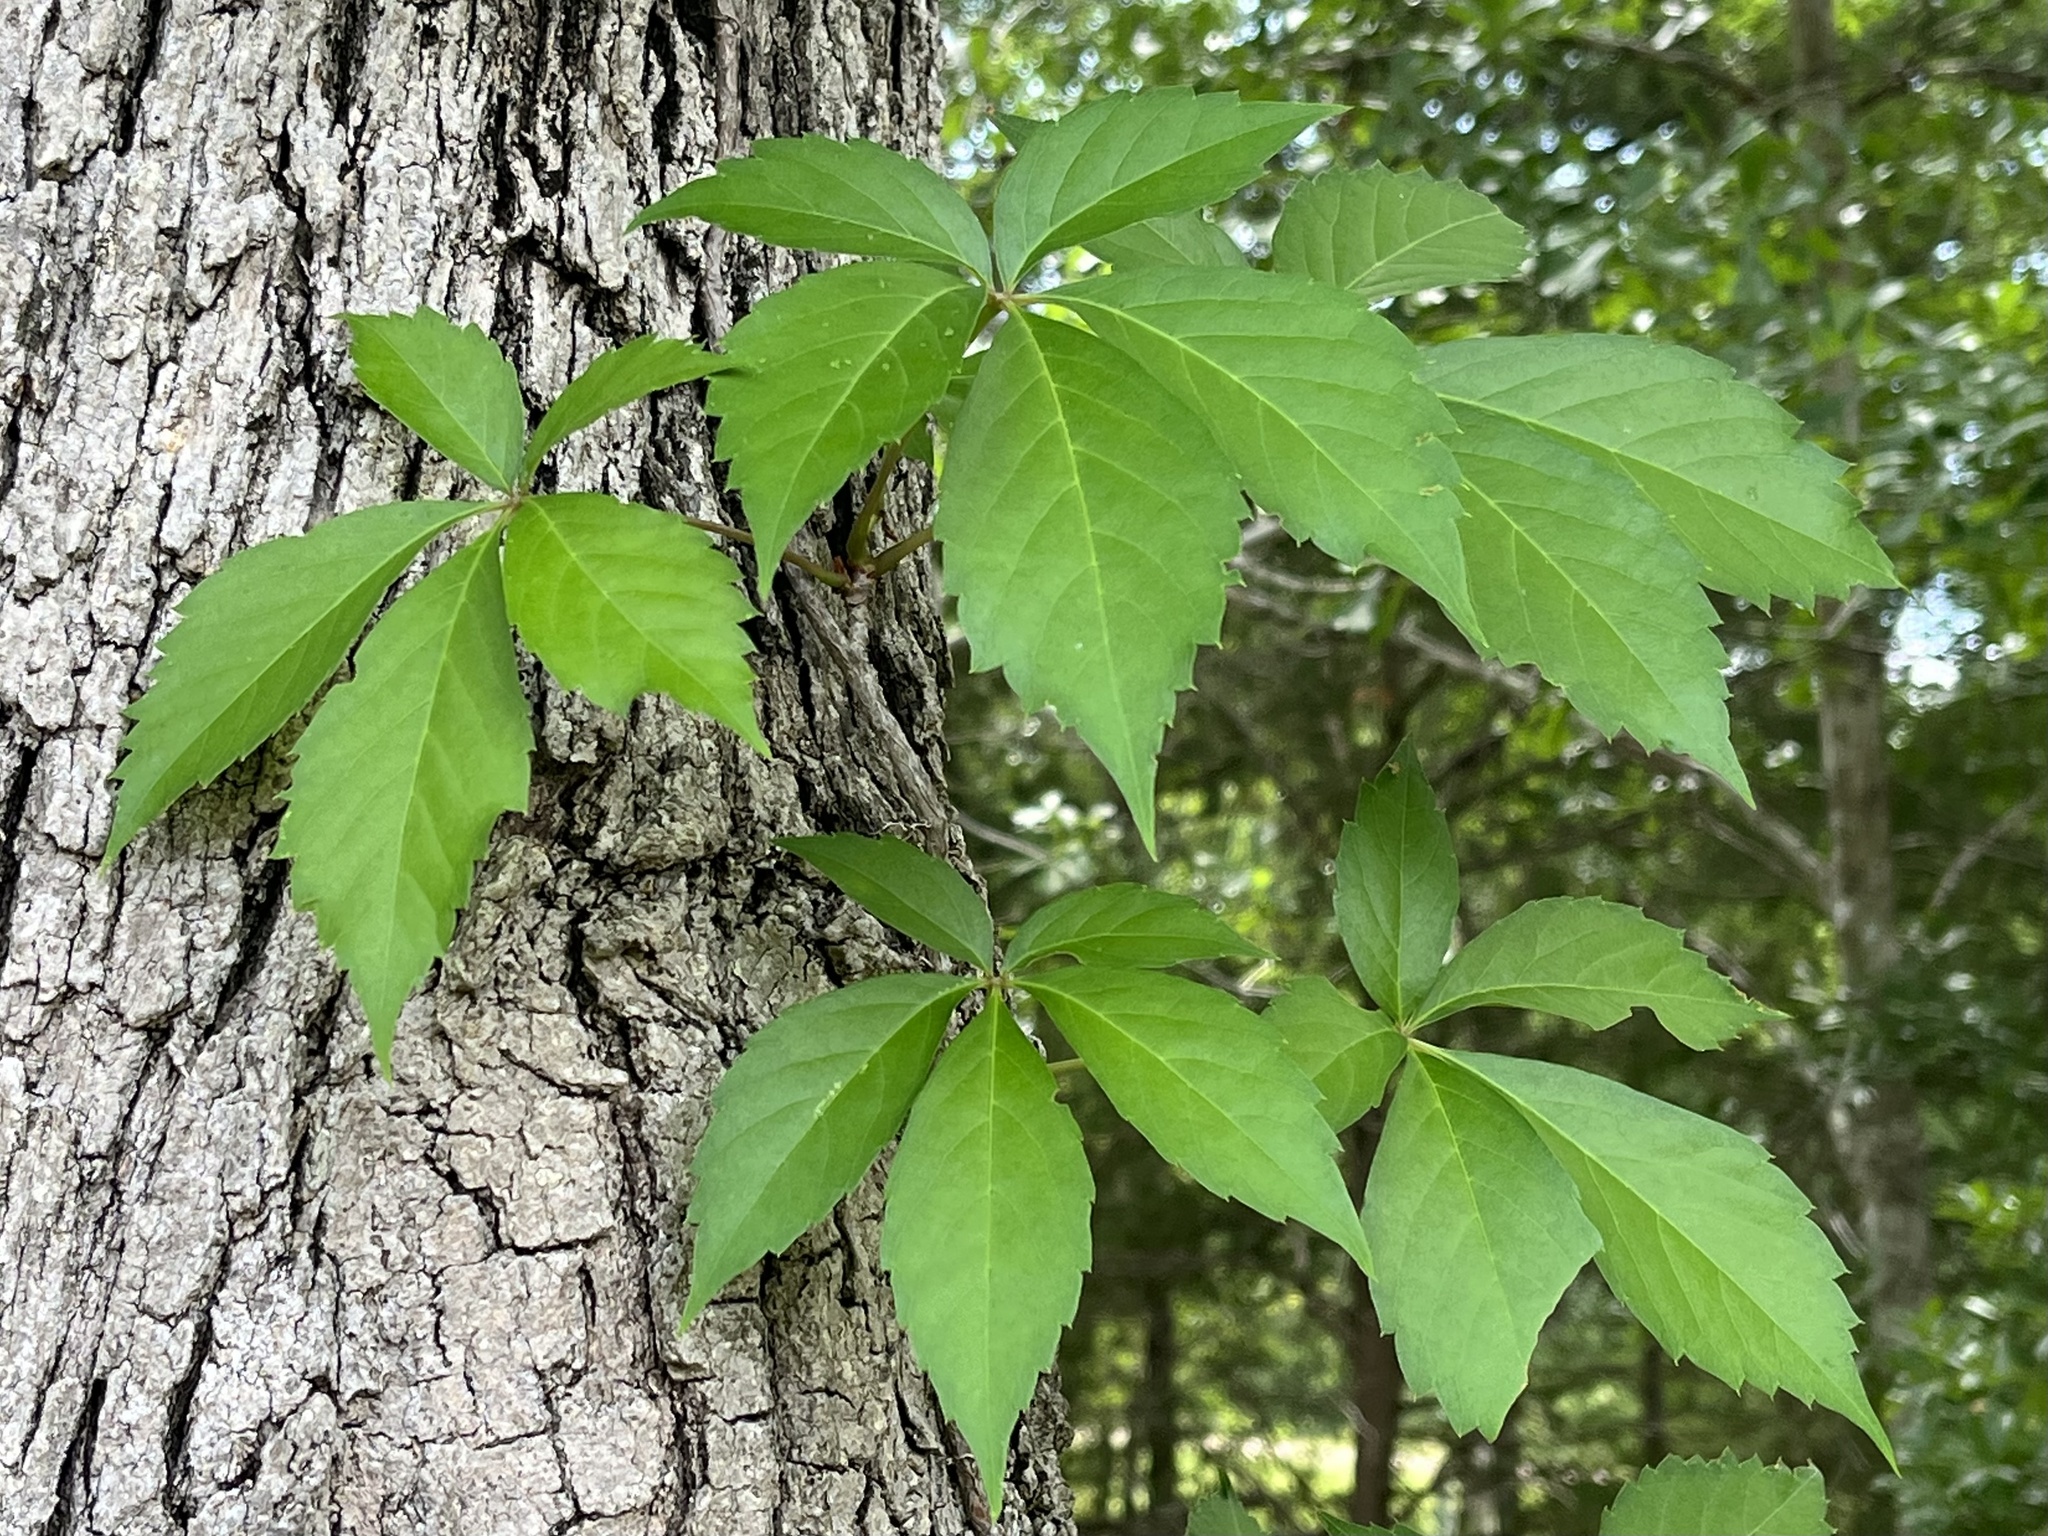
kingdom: Plantae
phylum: Tracheophyta
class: Magnoliopsida
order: Vitales
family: Vitaceae
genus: Parthenocissus
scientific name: Parthenocissus quinquefolia
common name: Virginia-creeper
